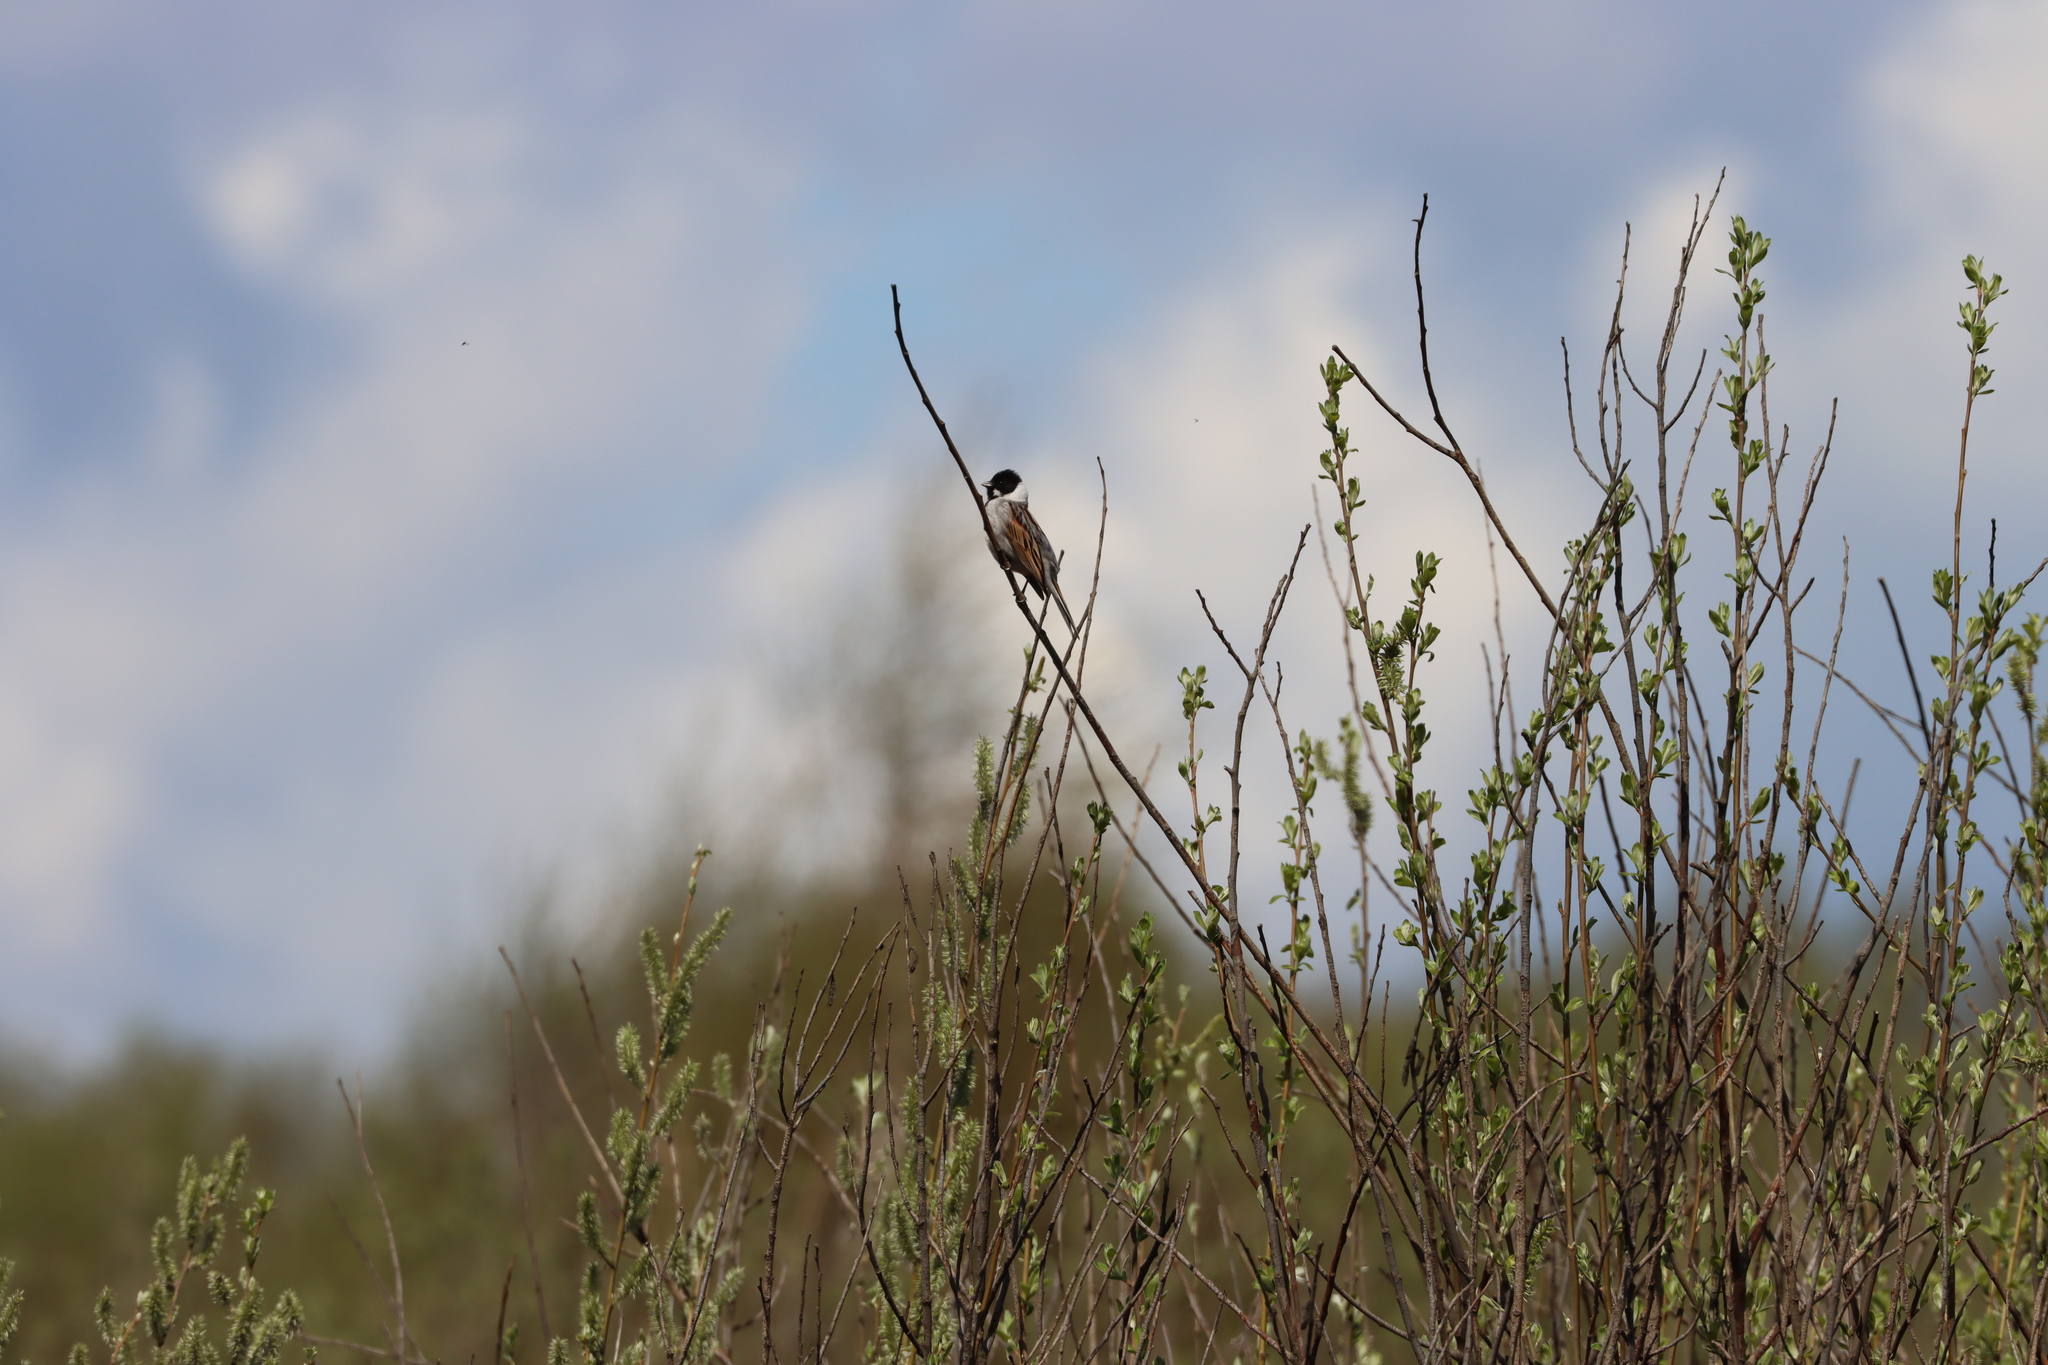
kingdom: Animalia
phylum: Chordata
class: Aves
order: Passeriformes
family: Emberizidae
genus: Emberiza
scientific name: Emberiza schoeniclus
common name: Reed bunting
